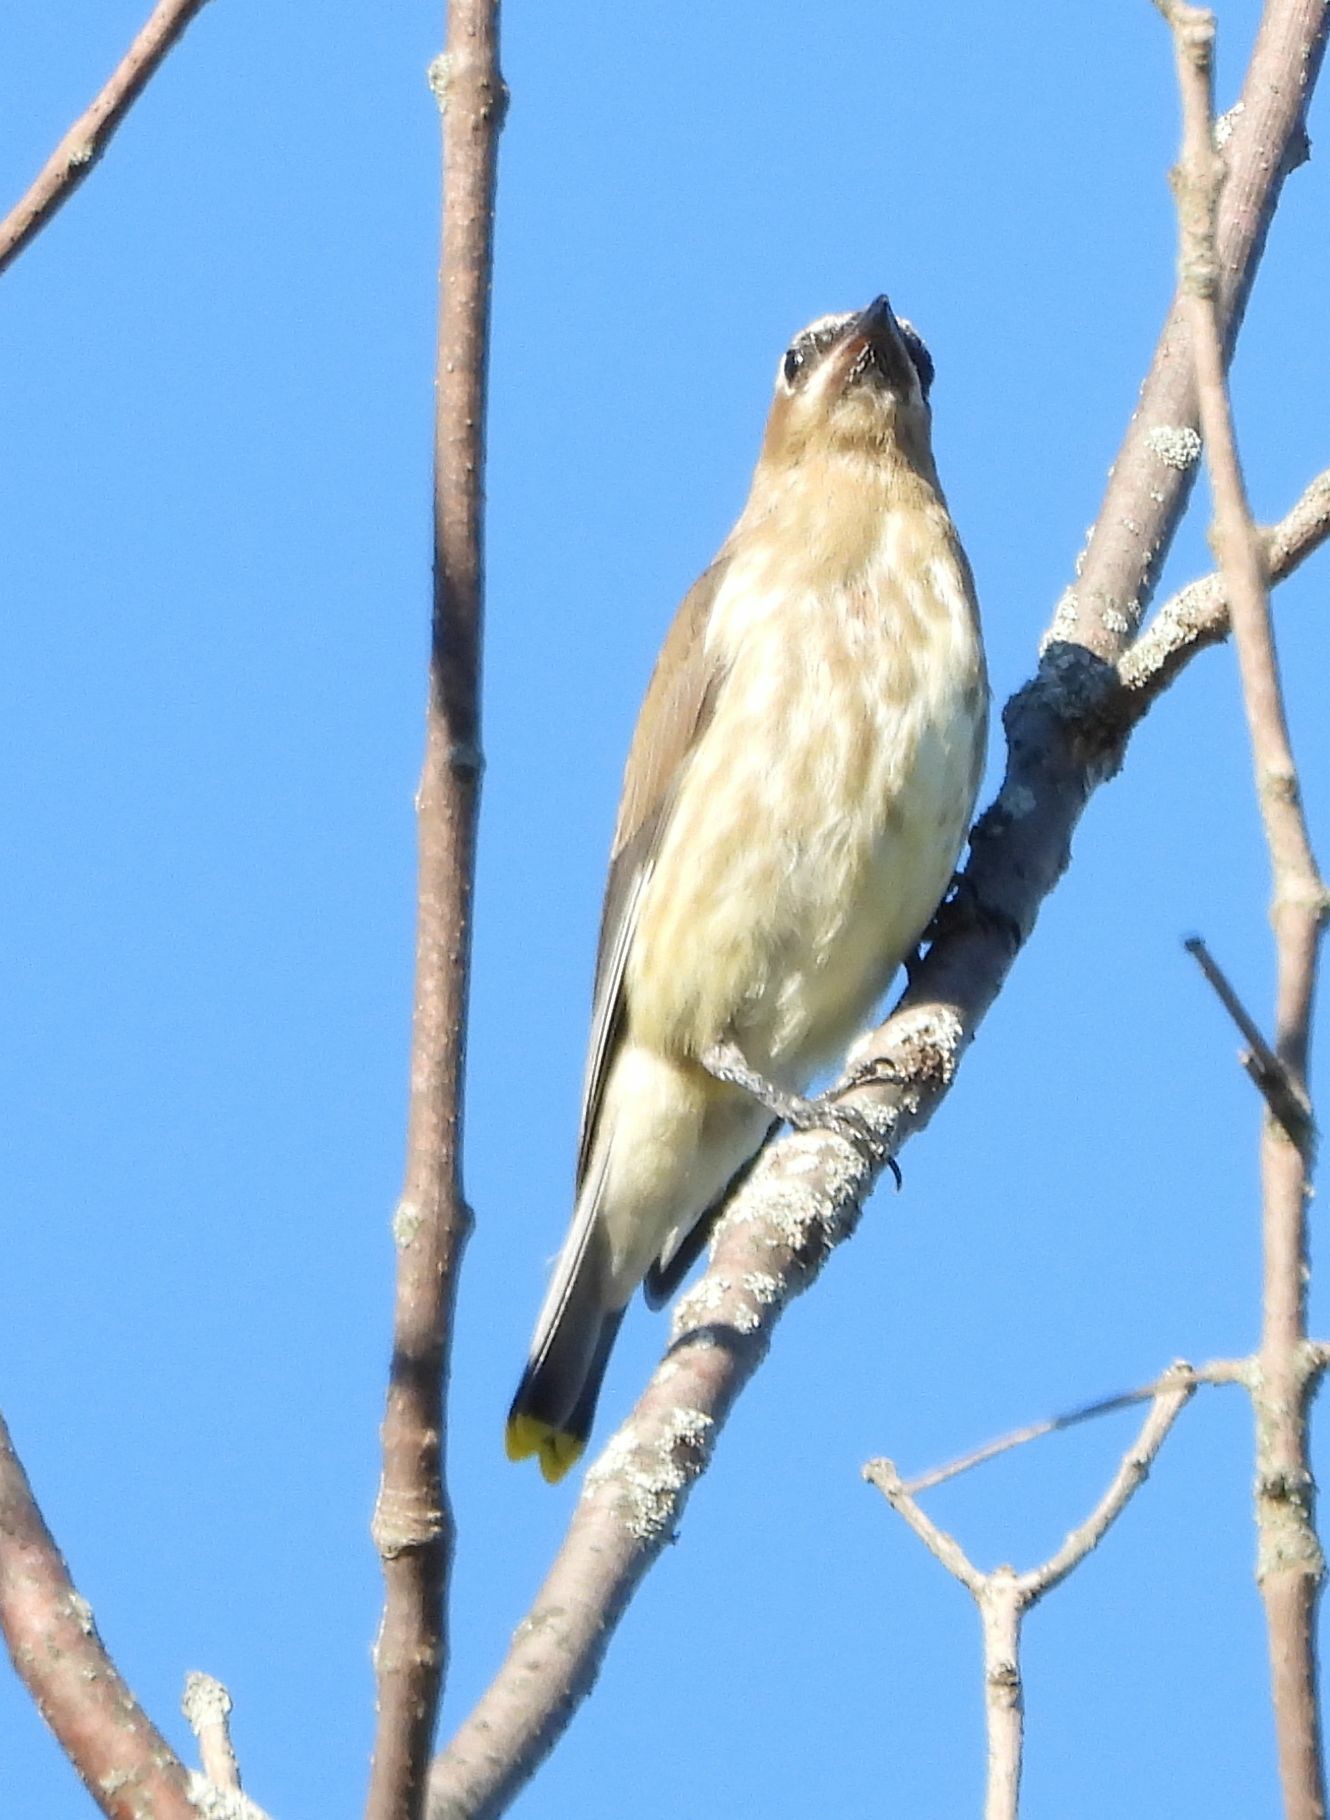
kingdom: Animalia
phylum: Chordata
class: Aves
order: Passeriformes
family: Bombycillidae
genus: Bombycilla
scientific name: Bombycilla cedrorum
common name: Cedar waxwing
